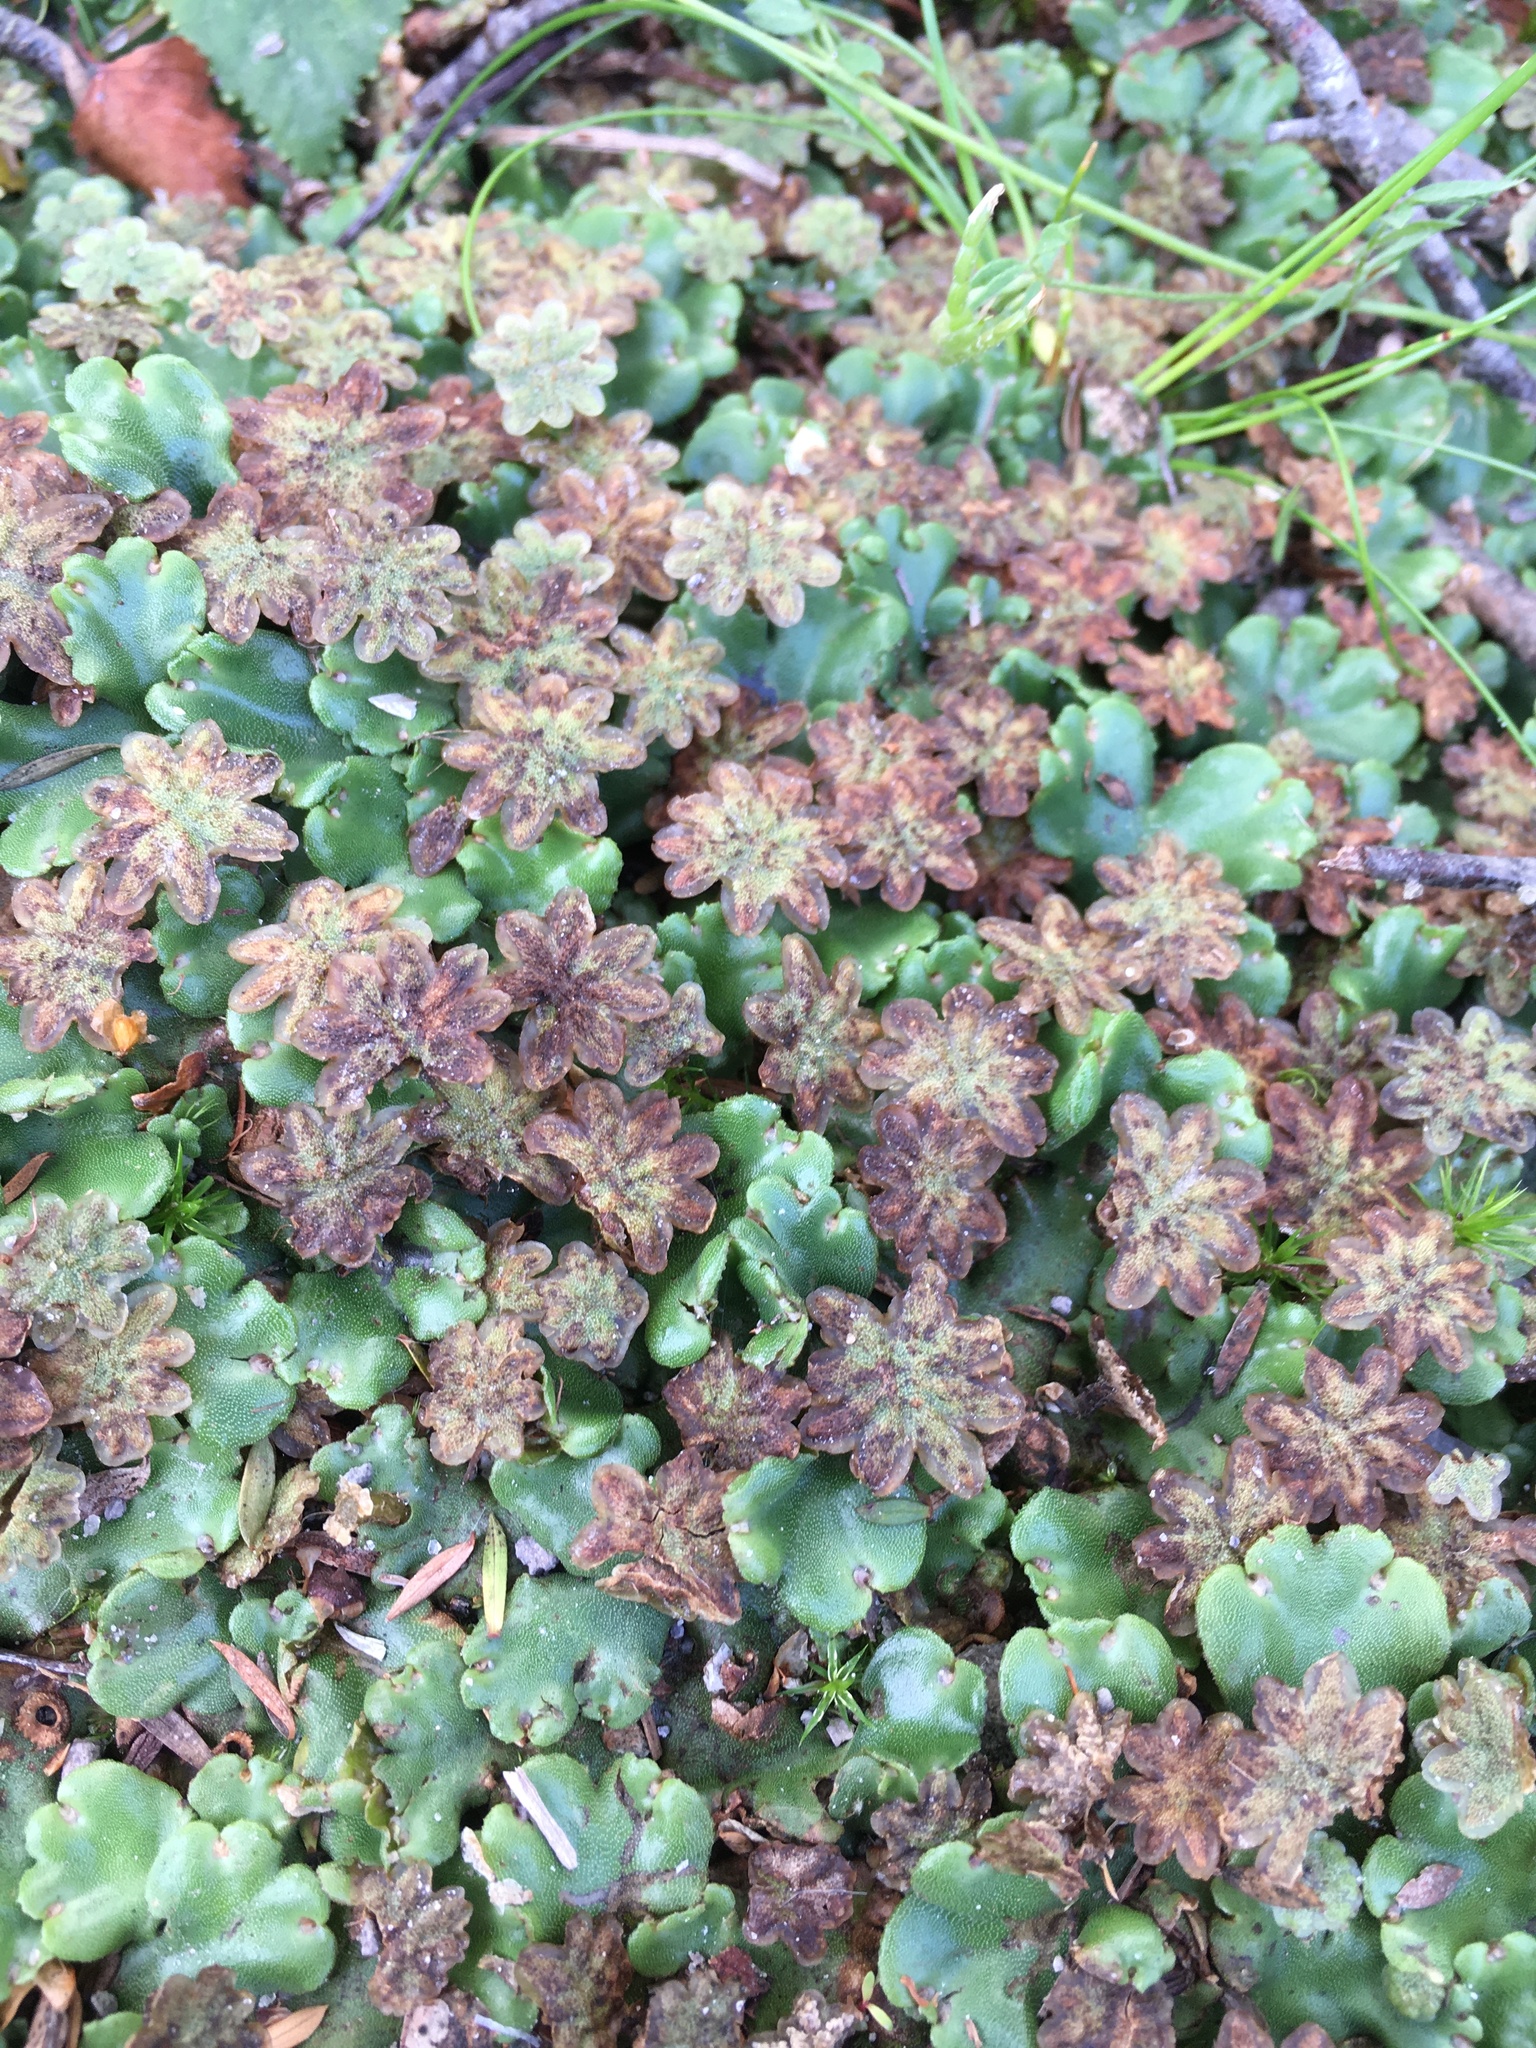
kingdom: Plantae
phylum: Marchantiophyta
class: Marchantiopsida
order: Marchantiales
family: Marchantiaceae
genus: Marchantia
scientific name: Marchantia berteroana
